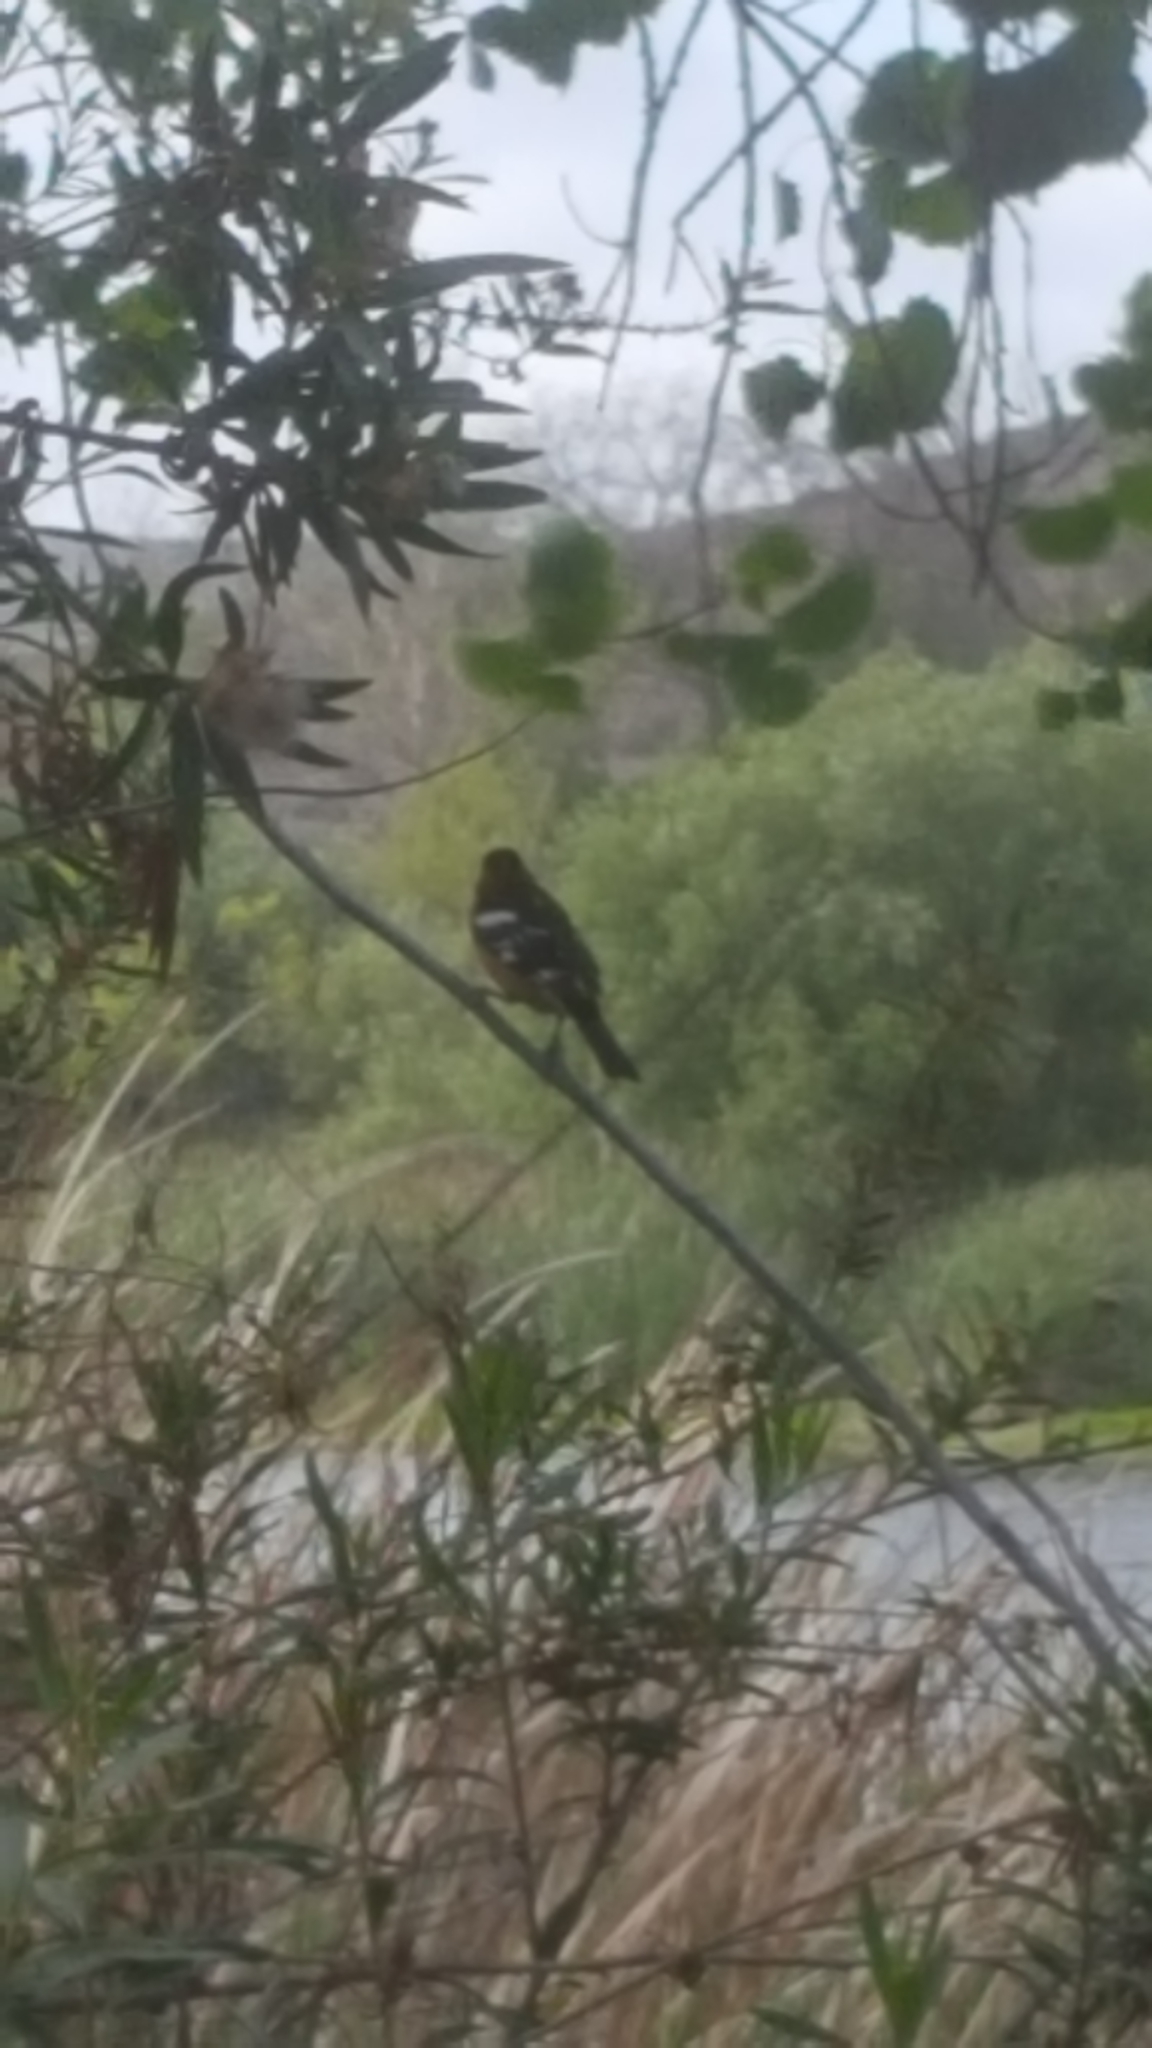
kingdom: Animalia
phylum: Chordata
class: Aves
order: Passeriformes
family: Cardinalidae
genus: Pheucticus
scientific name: Pheucticus melanocephalus
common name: Black-headed grosbeak
